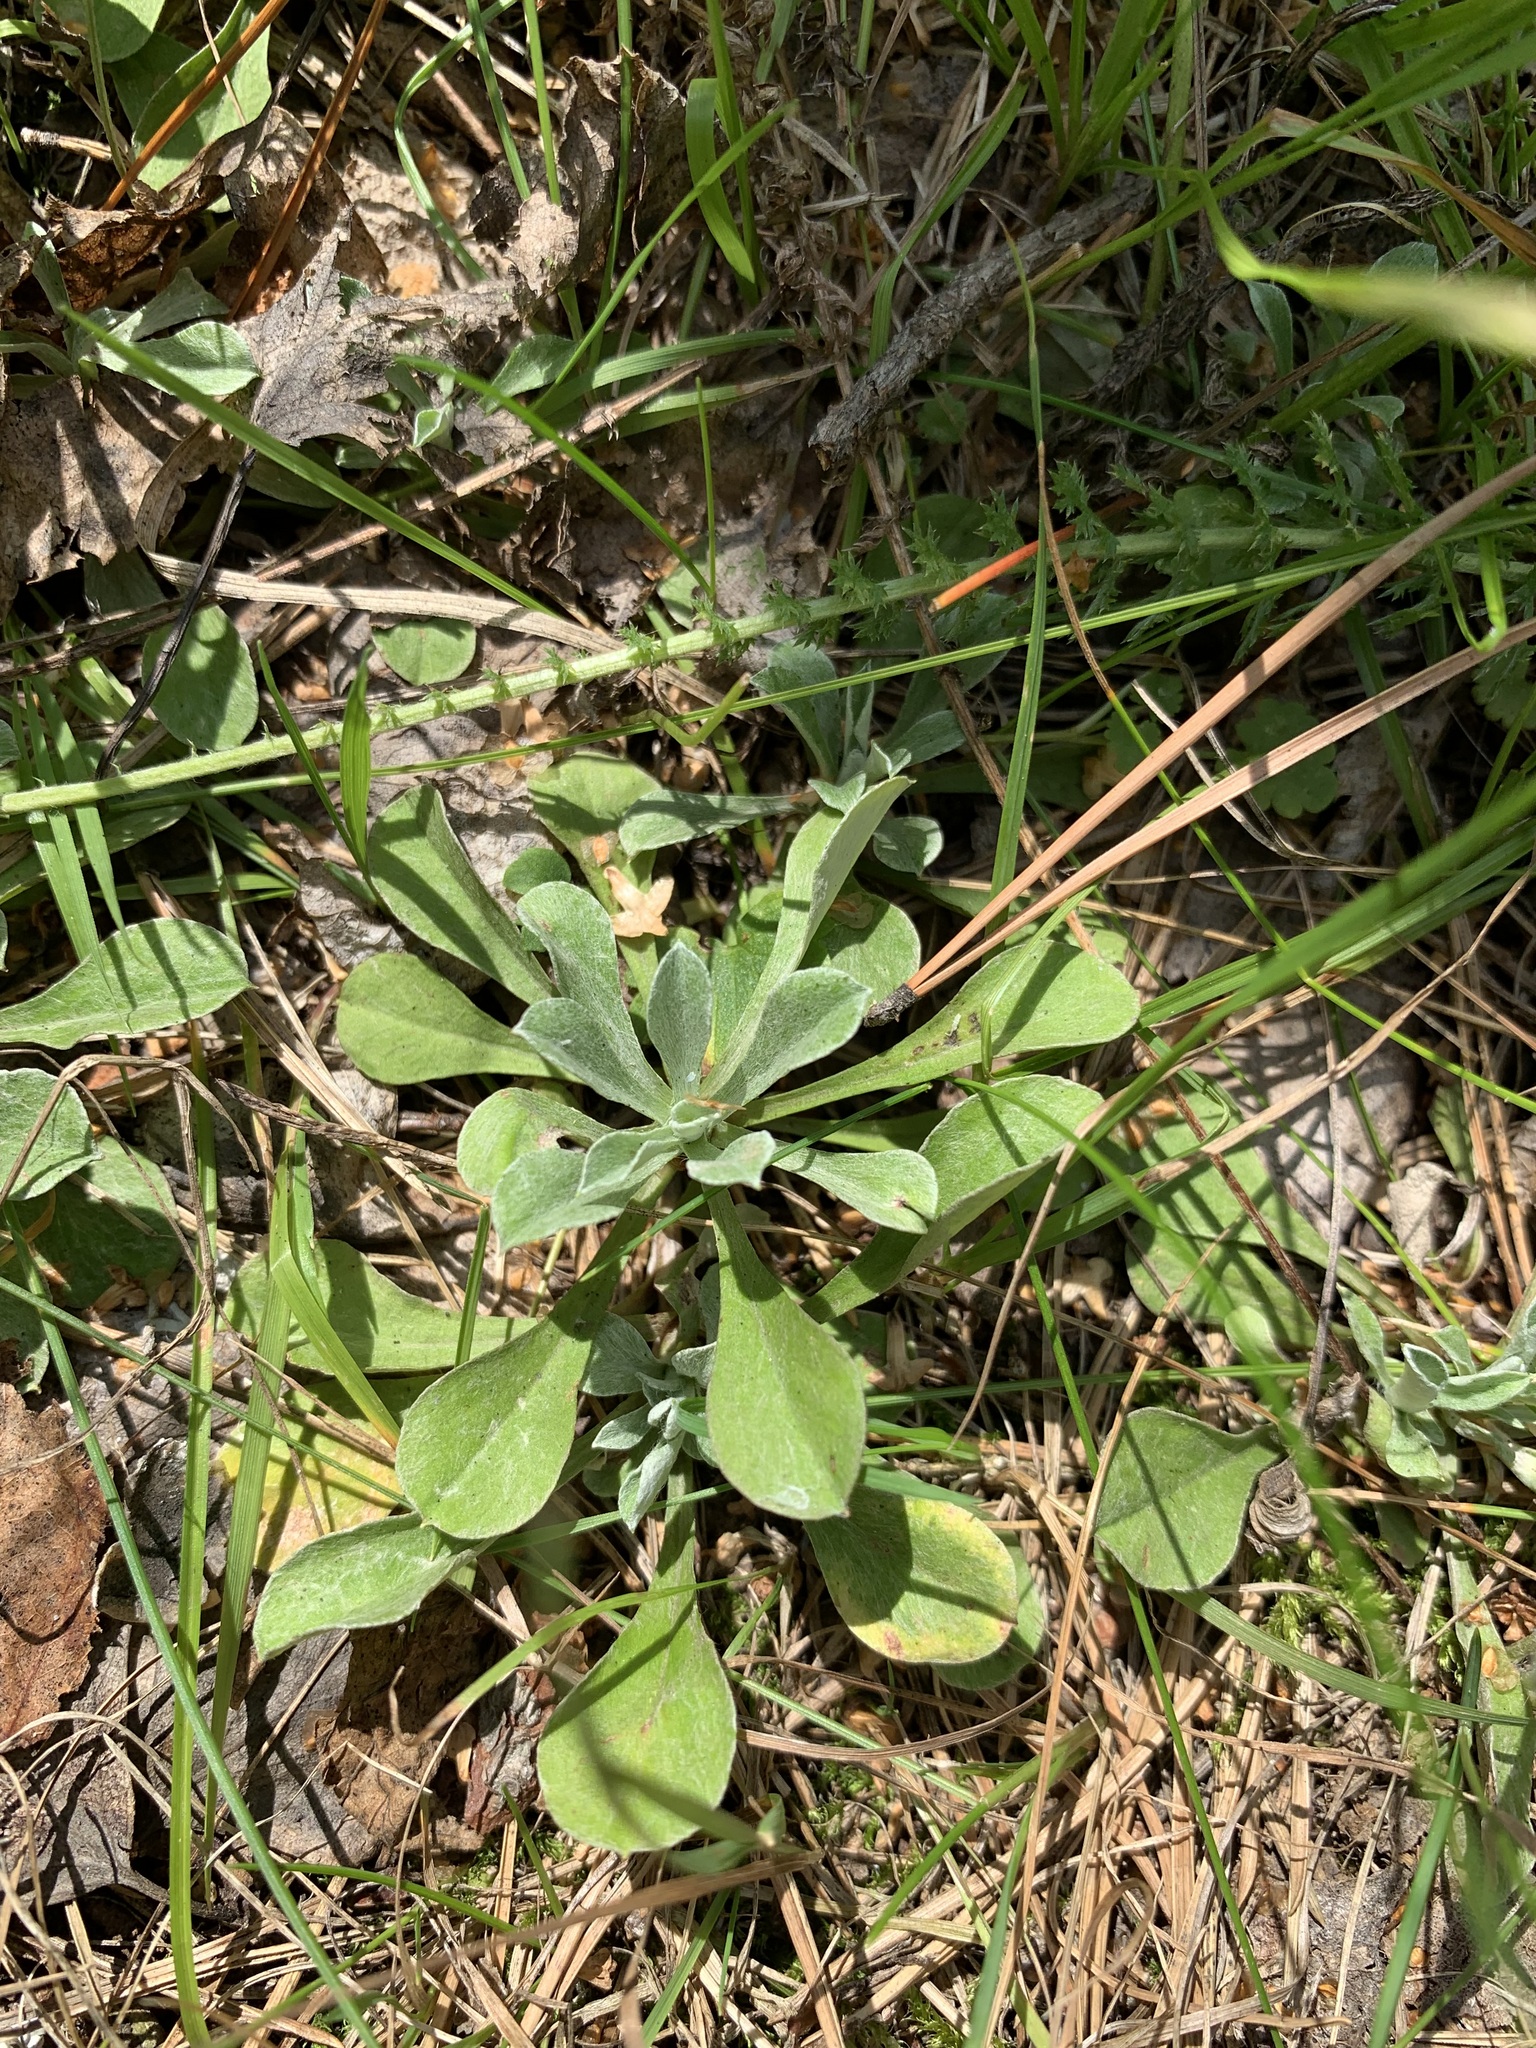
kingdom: Plantae
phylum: Tracheophyta
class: Magnoliopsida
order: Asterales
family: Asteraceae
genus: Antennaria
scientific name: Antennaria dioica
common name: Mountain everlasting
